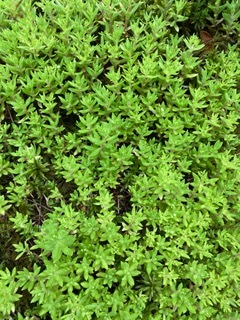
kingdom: Plantae
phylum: Tracheophyta
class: Magnoliopsida
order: Saxifragales
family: Crassulaceae
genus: Sedum
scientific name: Sedum sarmentosum
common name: Stringy stonecrop
